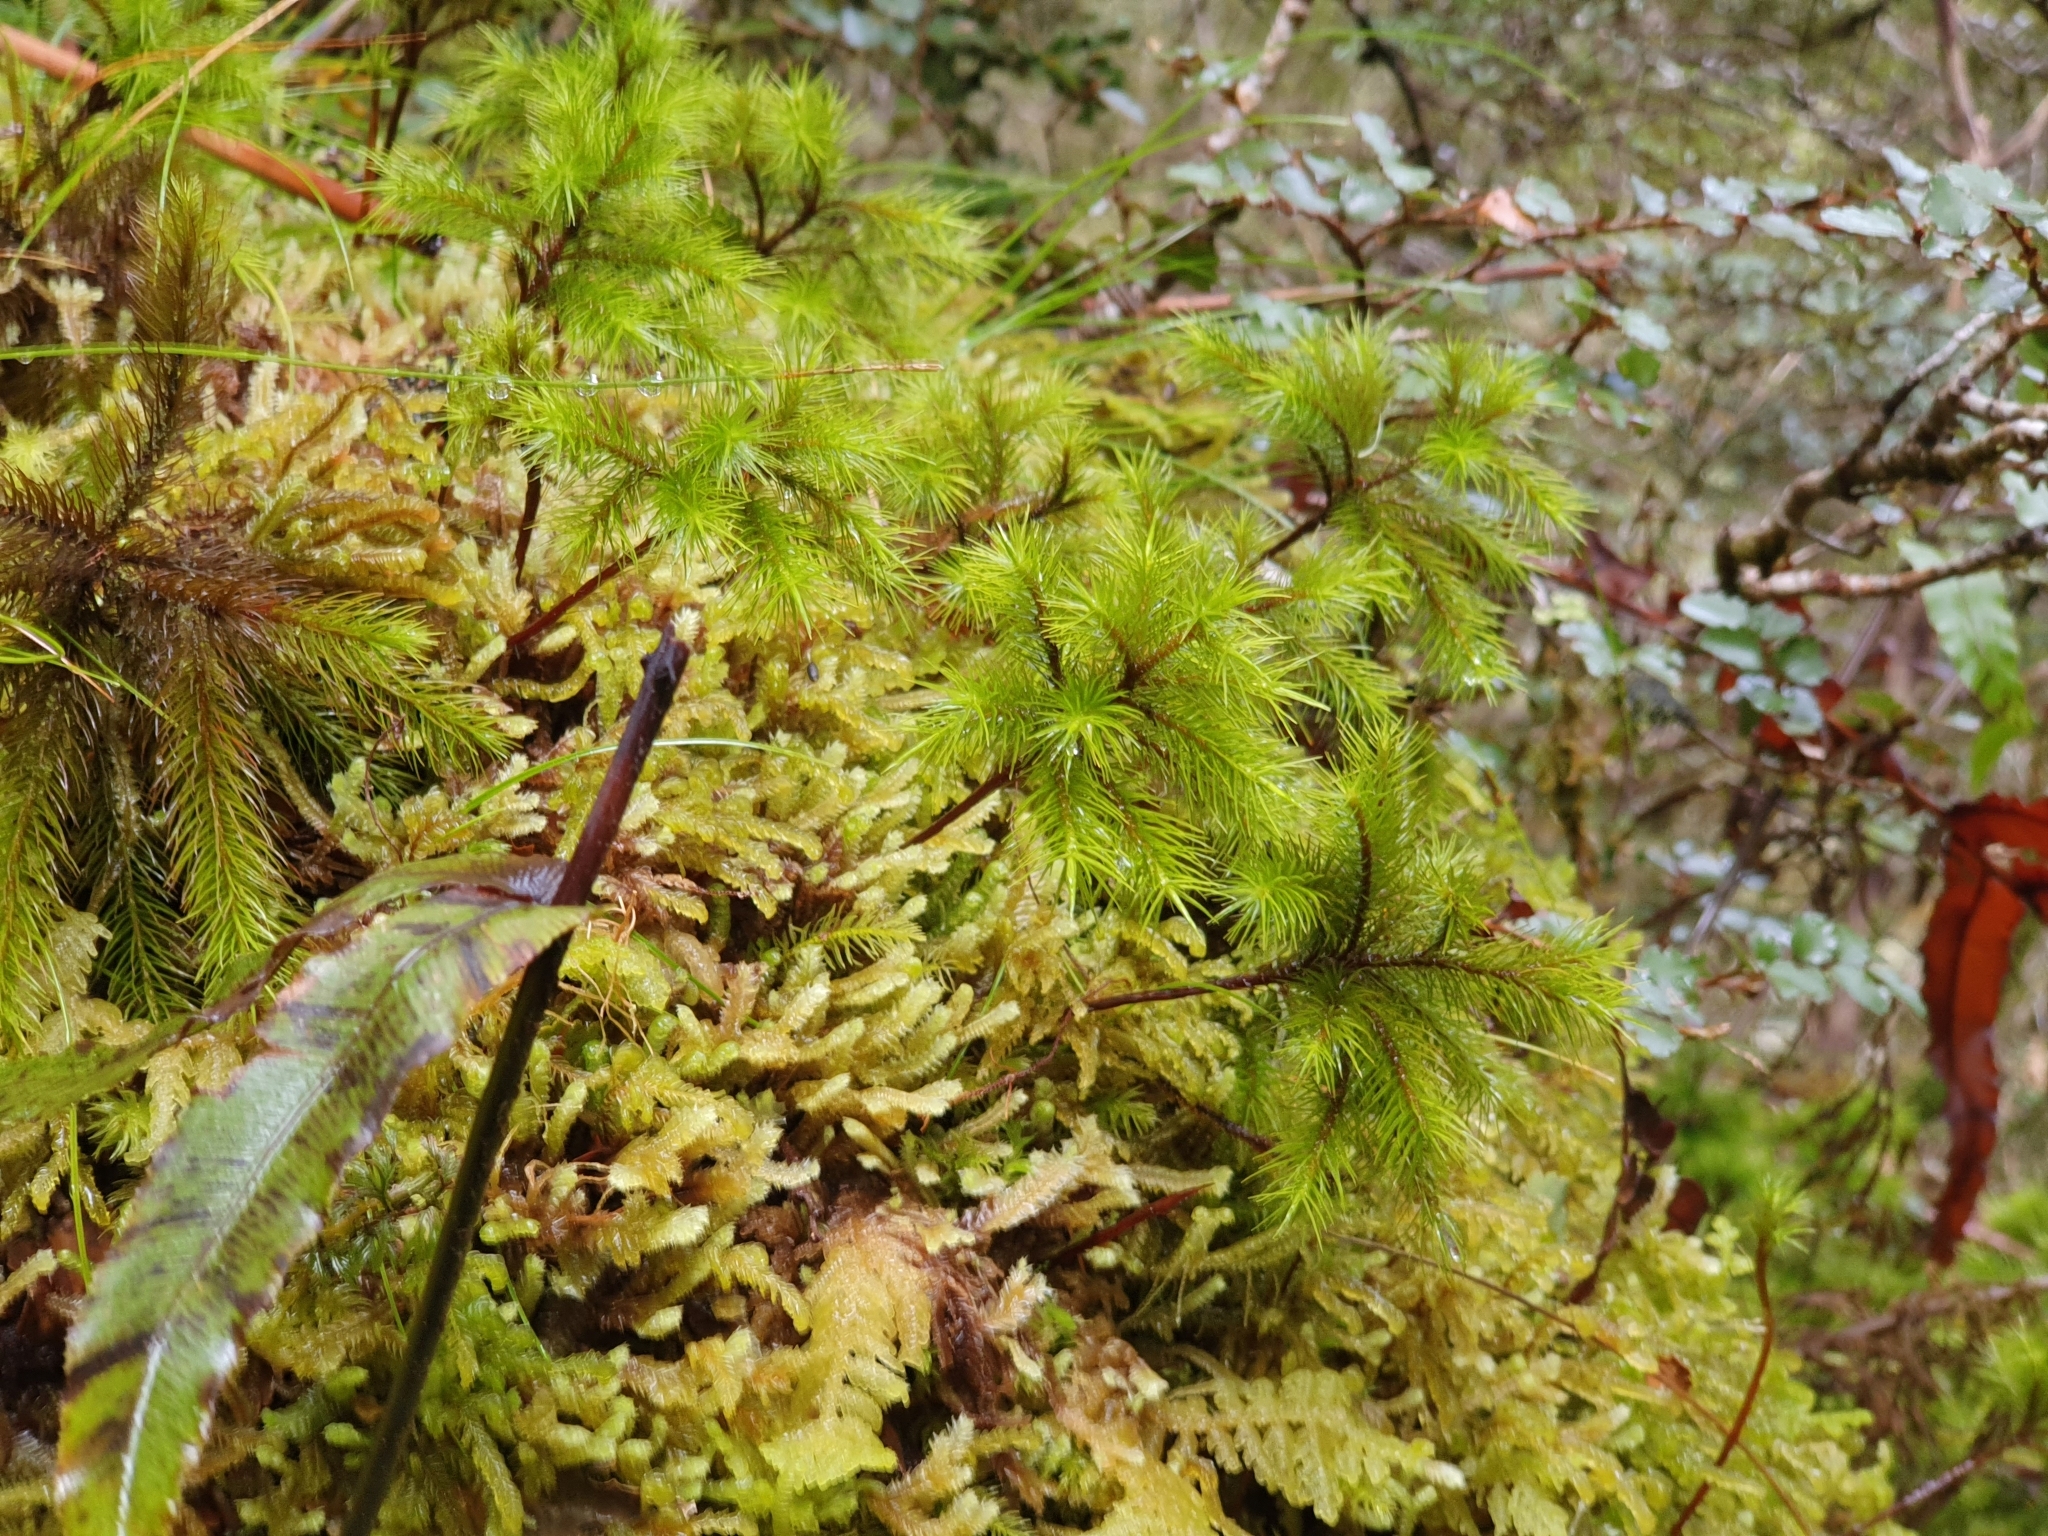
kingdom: Plantae
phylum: Bryophyta
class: Polytrichopsida
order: Polytrichales
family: Polytrichaceae
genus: Dendroligotrichum
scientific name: Dendroligotrichum tongariroense
